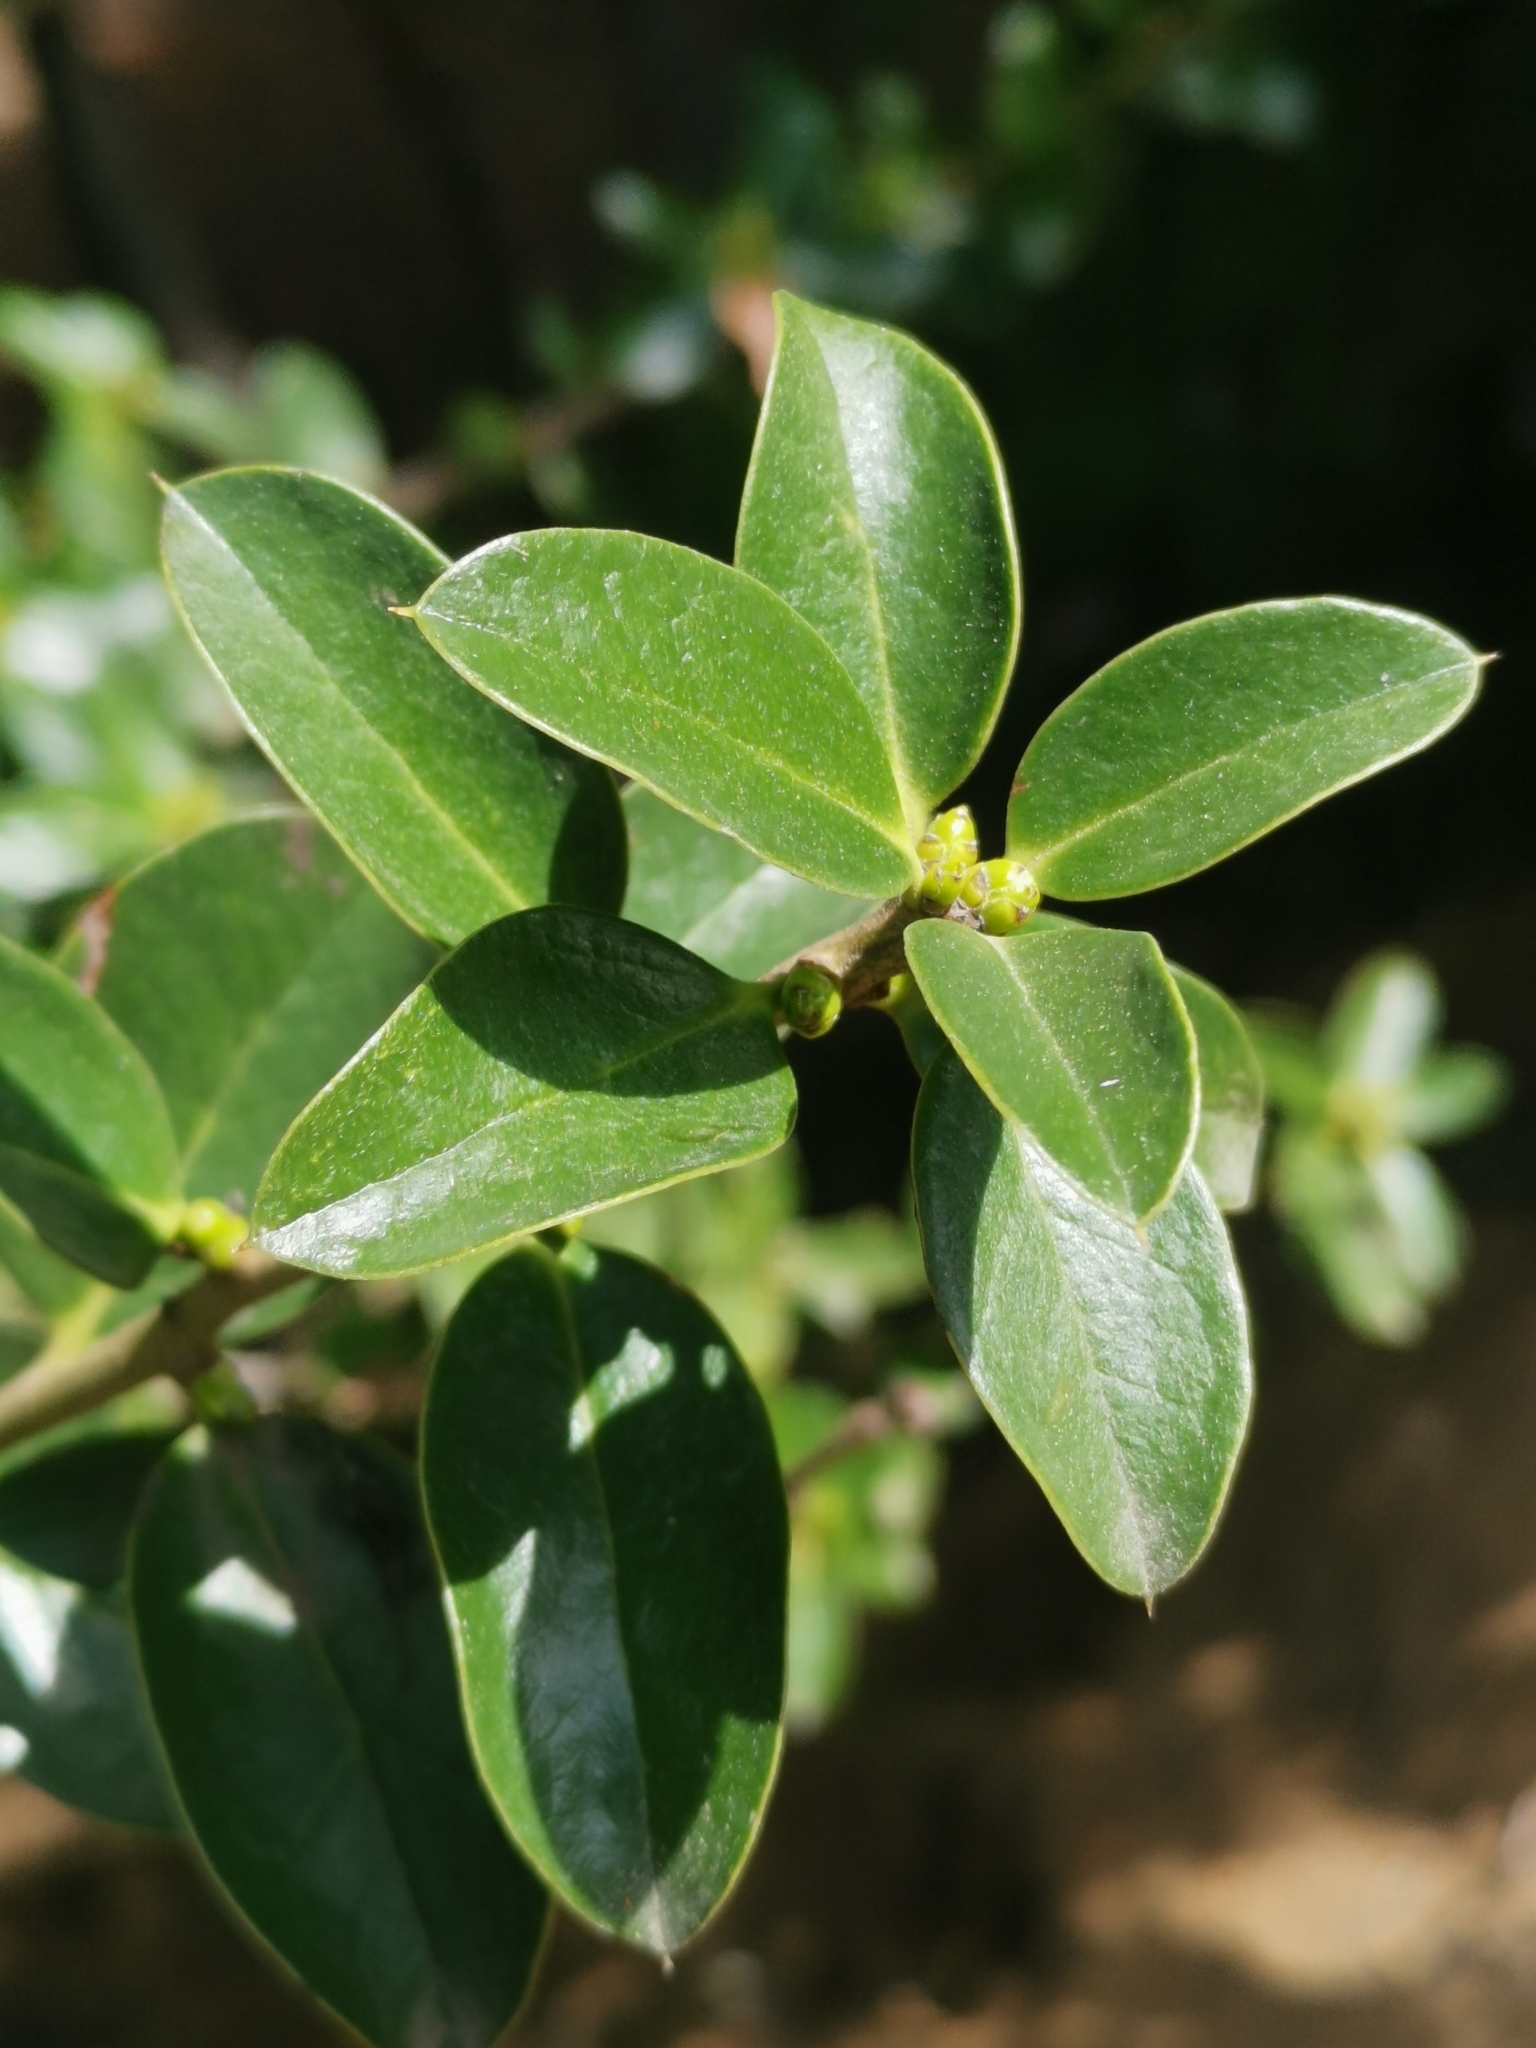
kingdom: Plantae
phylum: Tracheophyta
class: Magnoliopsida
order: Asterales
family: Asteraceae
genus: Archidasyphyllum
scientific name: Archidasyphyllum diacanthoides
